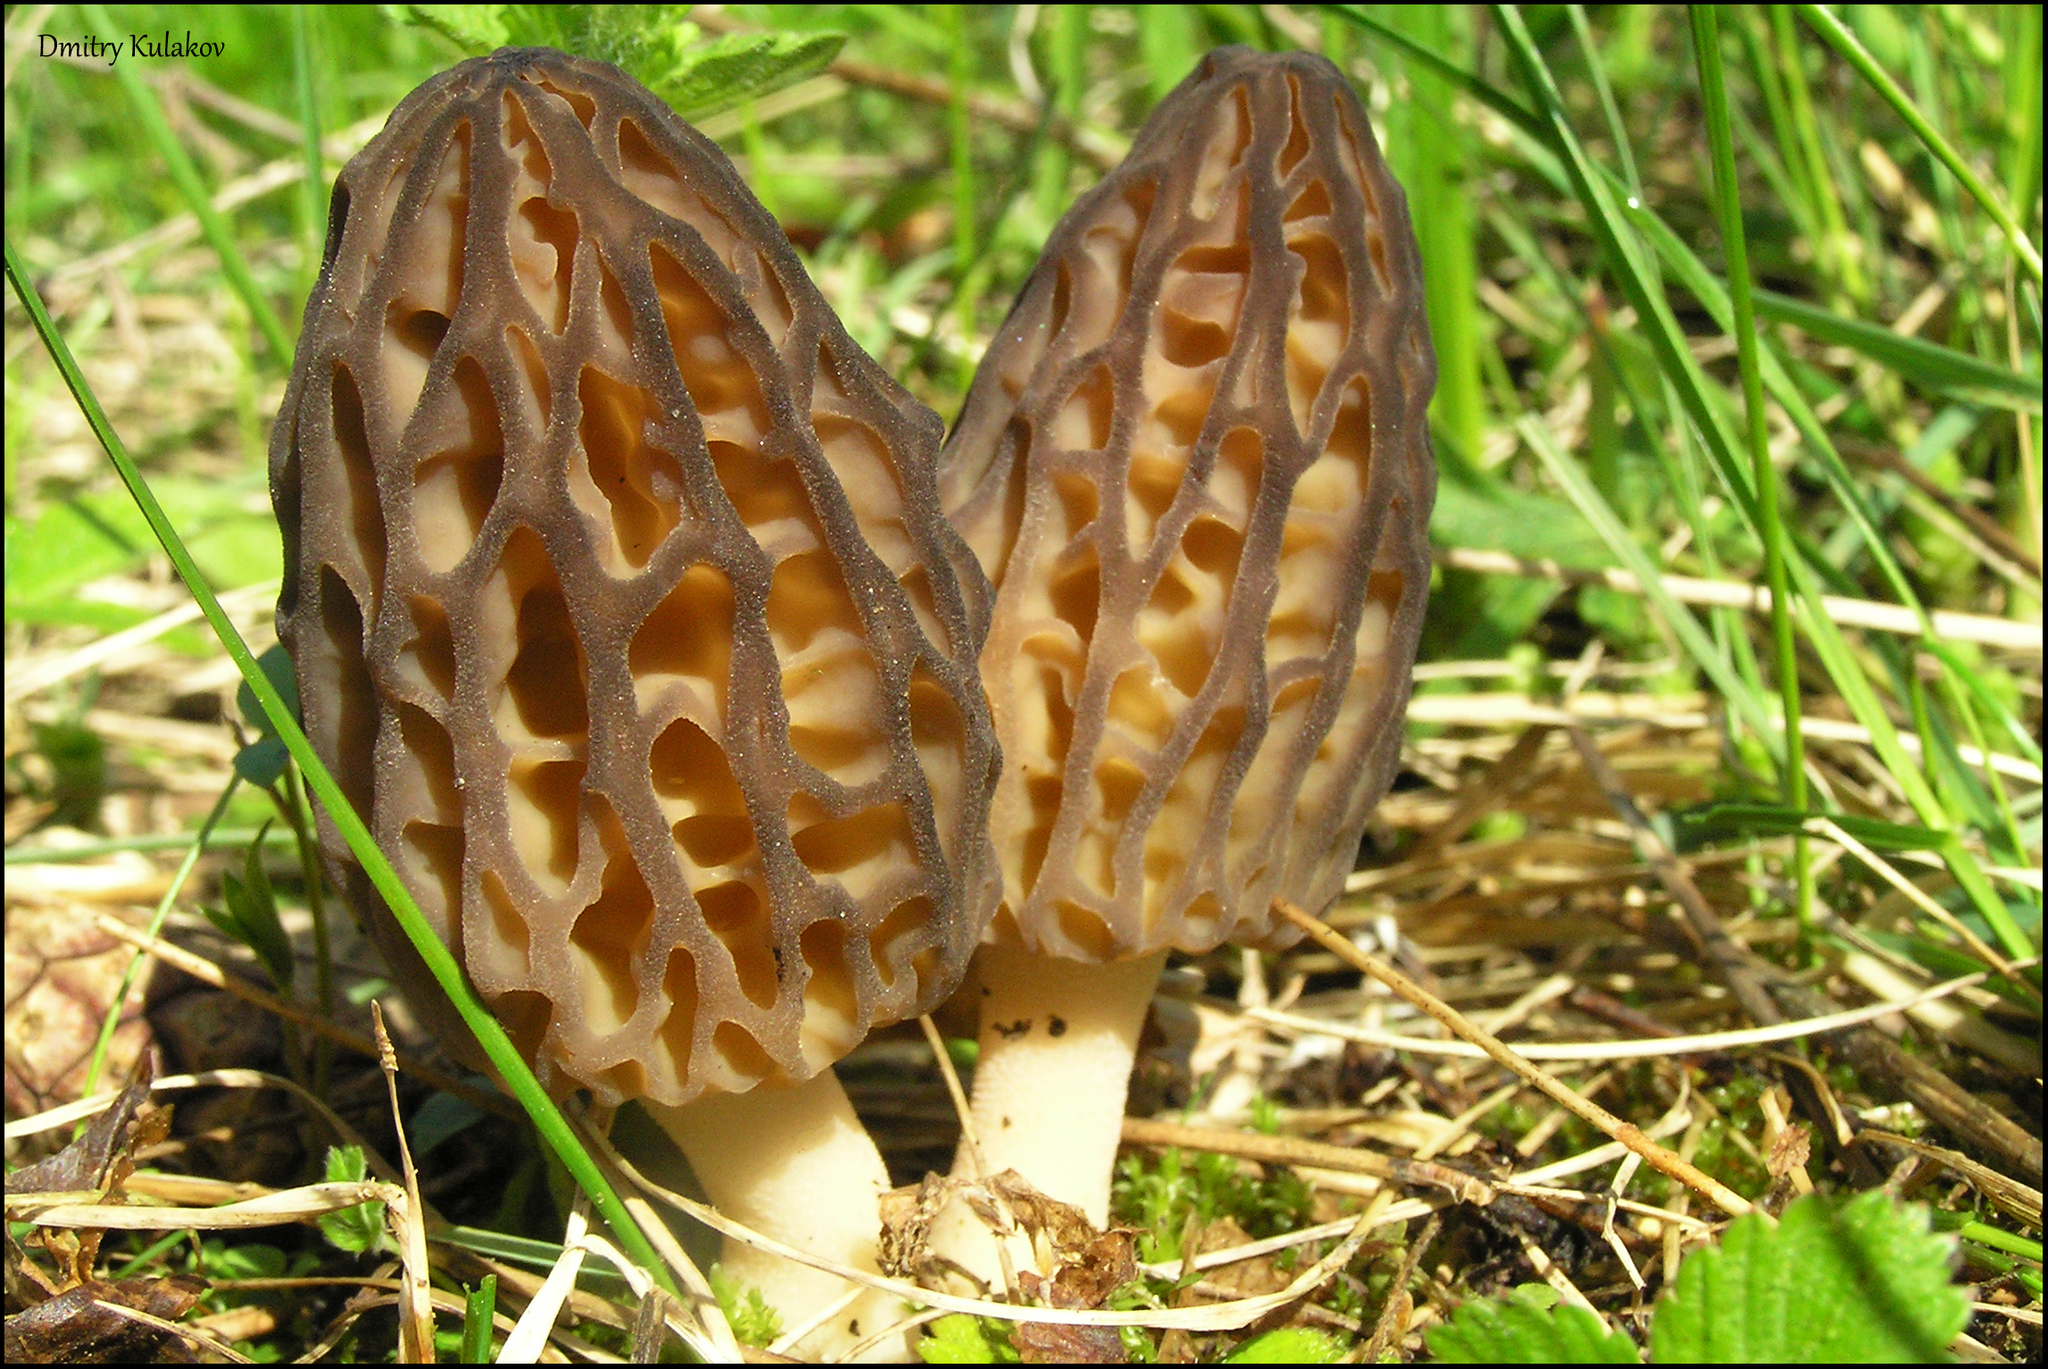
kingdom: Fungi
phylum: Ascomycota
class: Pezizomycetes
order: Pezizales
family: Morchellaceae
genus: Morchella
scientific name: Morchella
